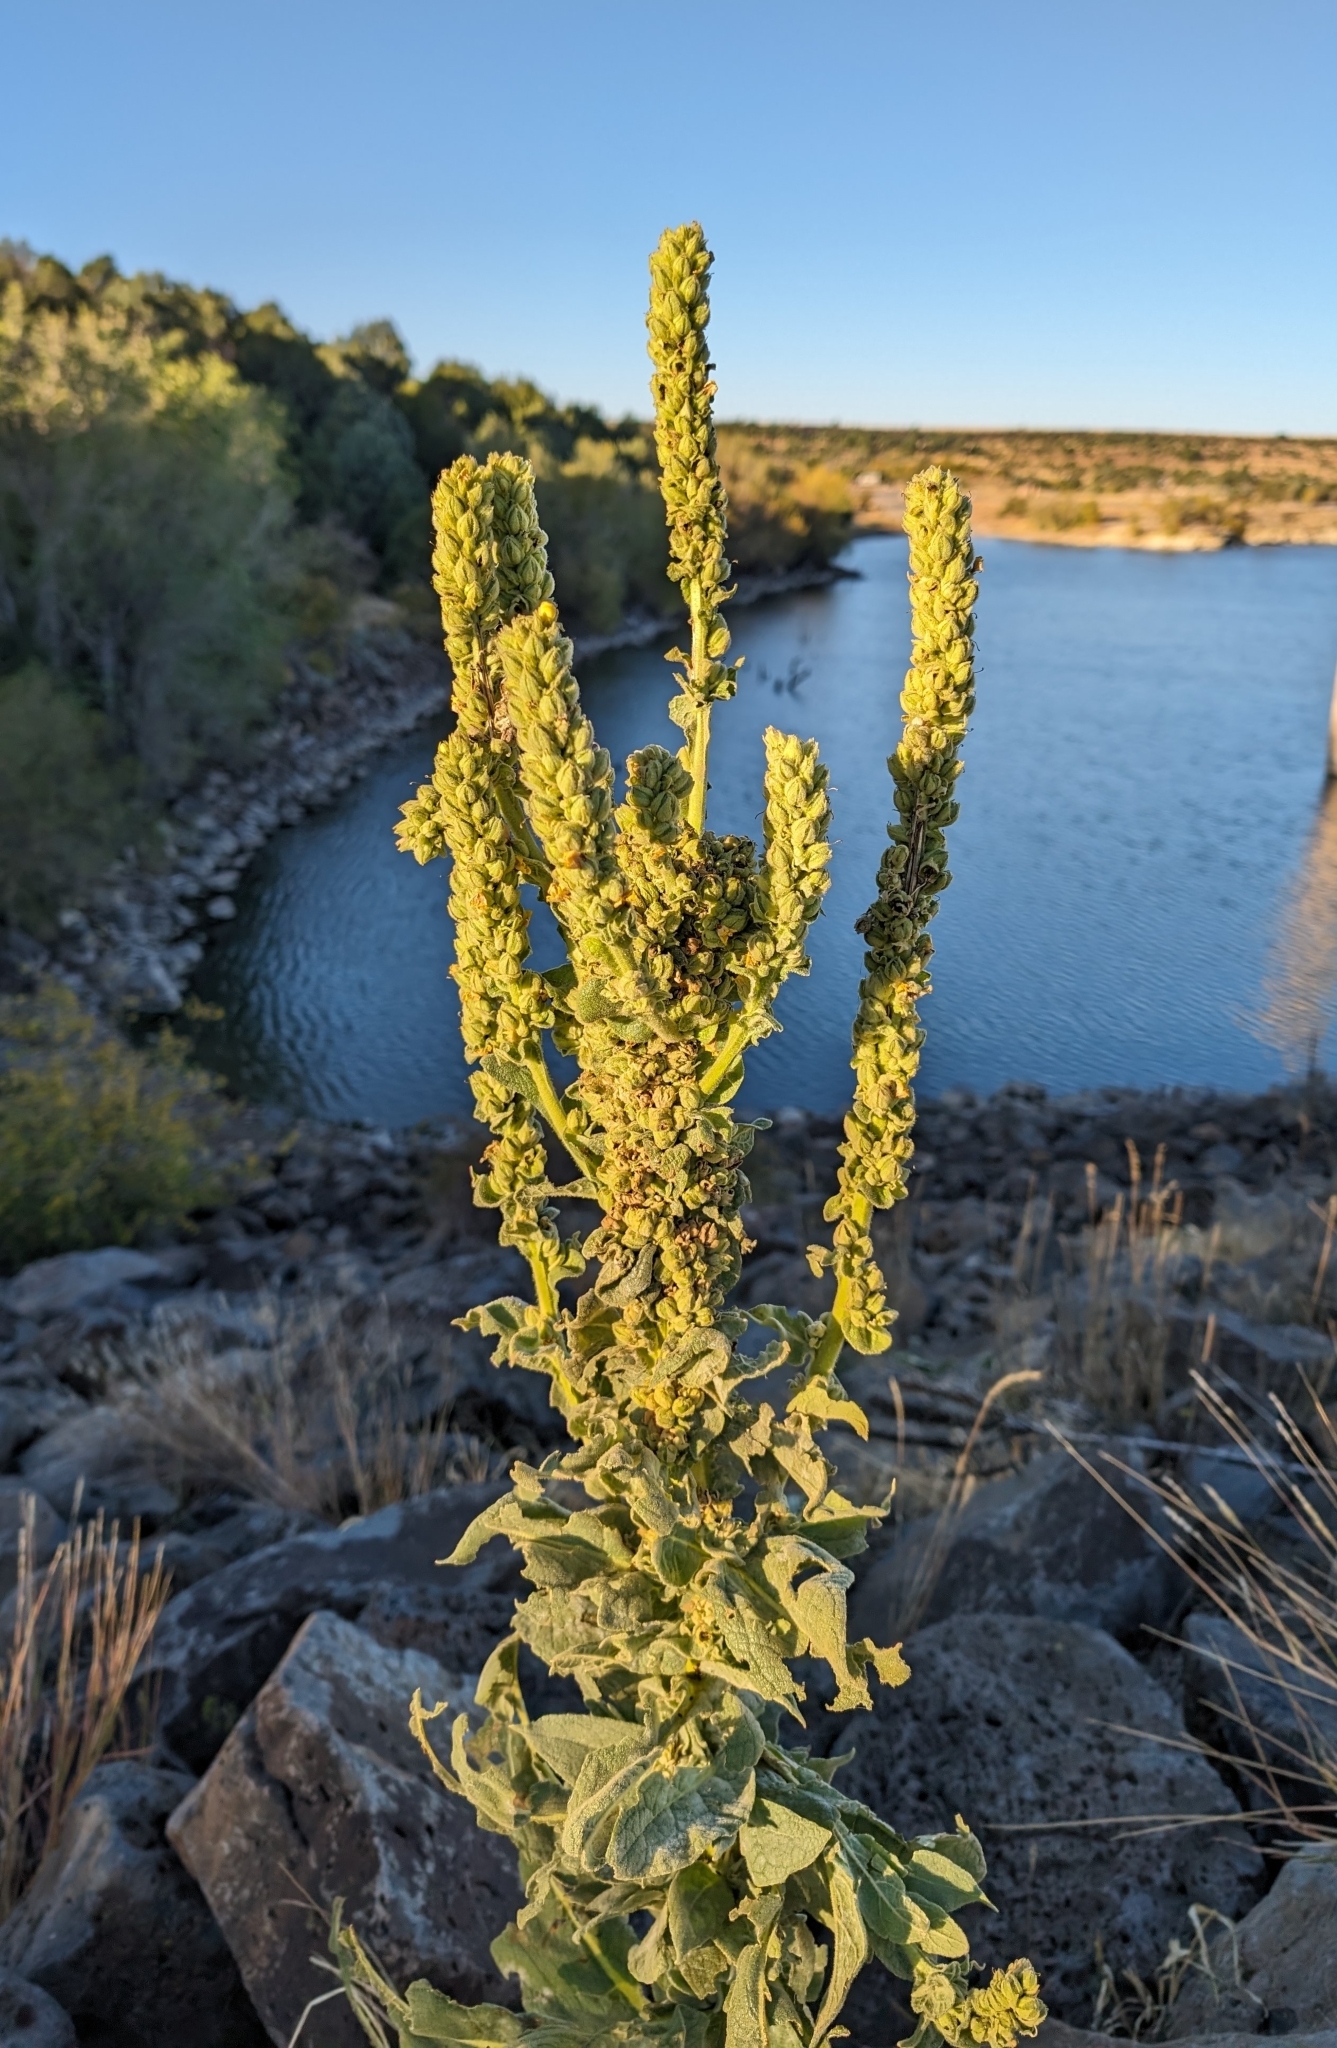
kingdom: Plantae
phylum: Tracheophyta
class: Magnoliopsida
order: Lamiales
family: Scrophulariaceae
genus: Verbascum
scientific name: Verbascum thapsus
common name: Common mullein
